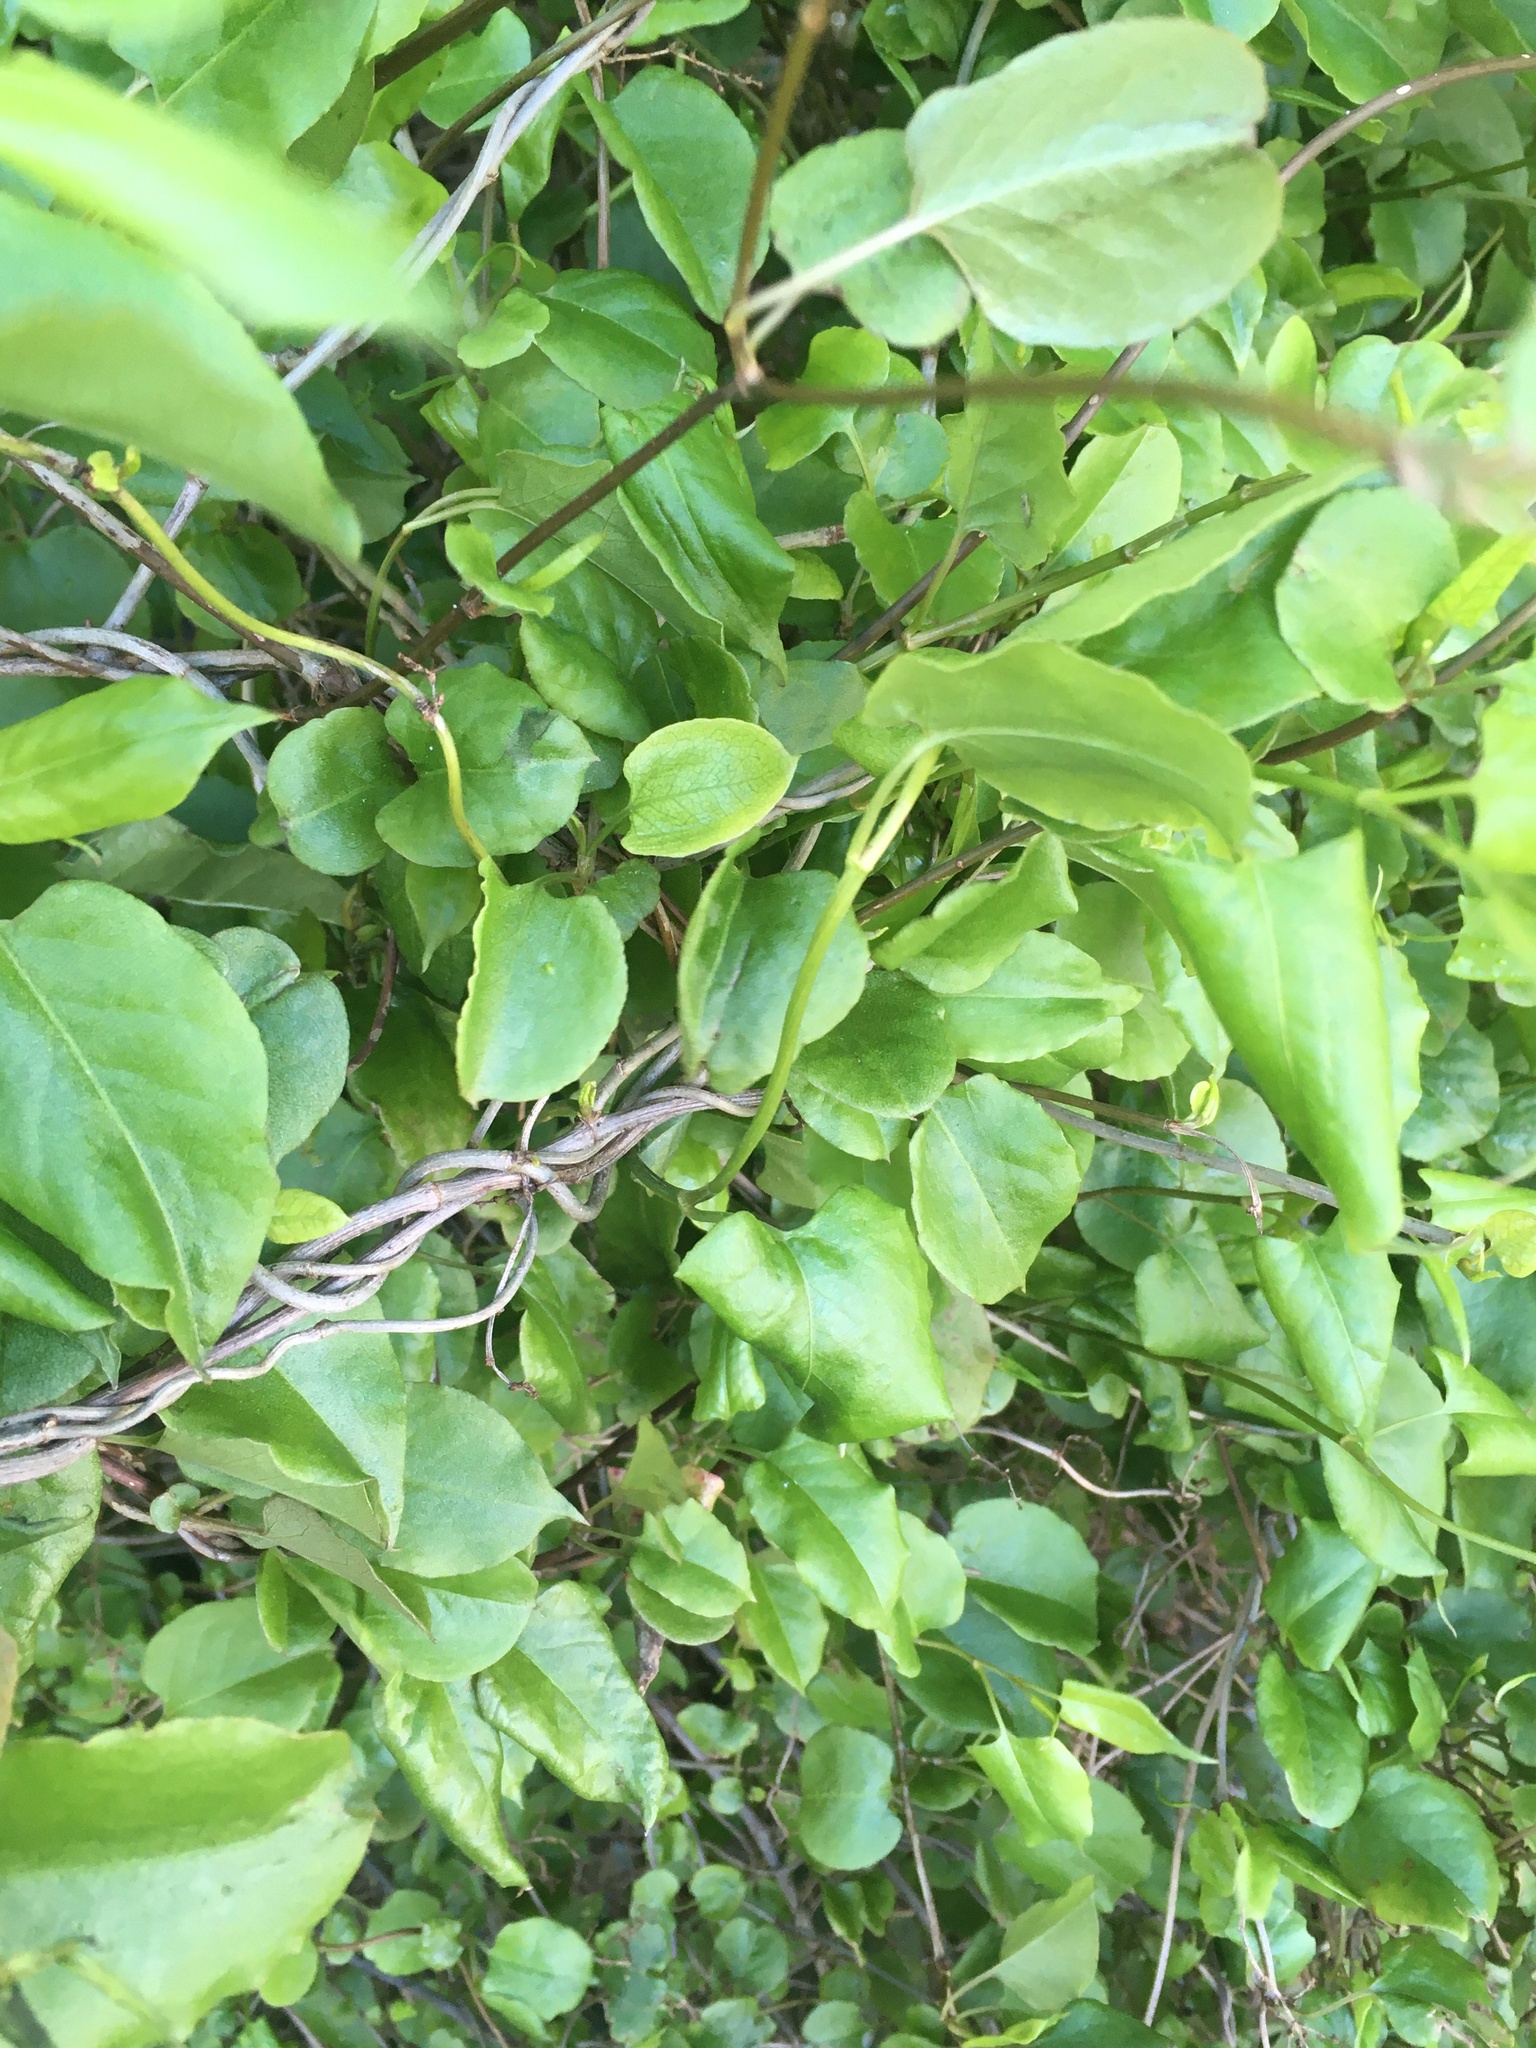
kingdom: Plantae
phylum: Tracheophyta
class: Magnoliopsida
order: Caryophyllales
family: Polygonaceae
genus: Muehlenbeckia
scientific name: Muehlenbeckia australis
